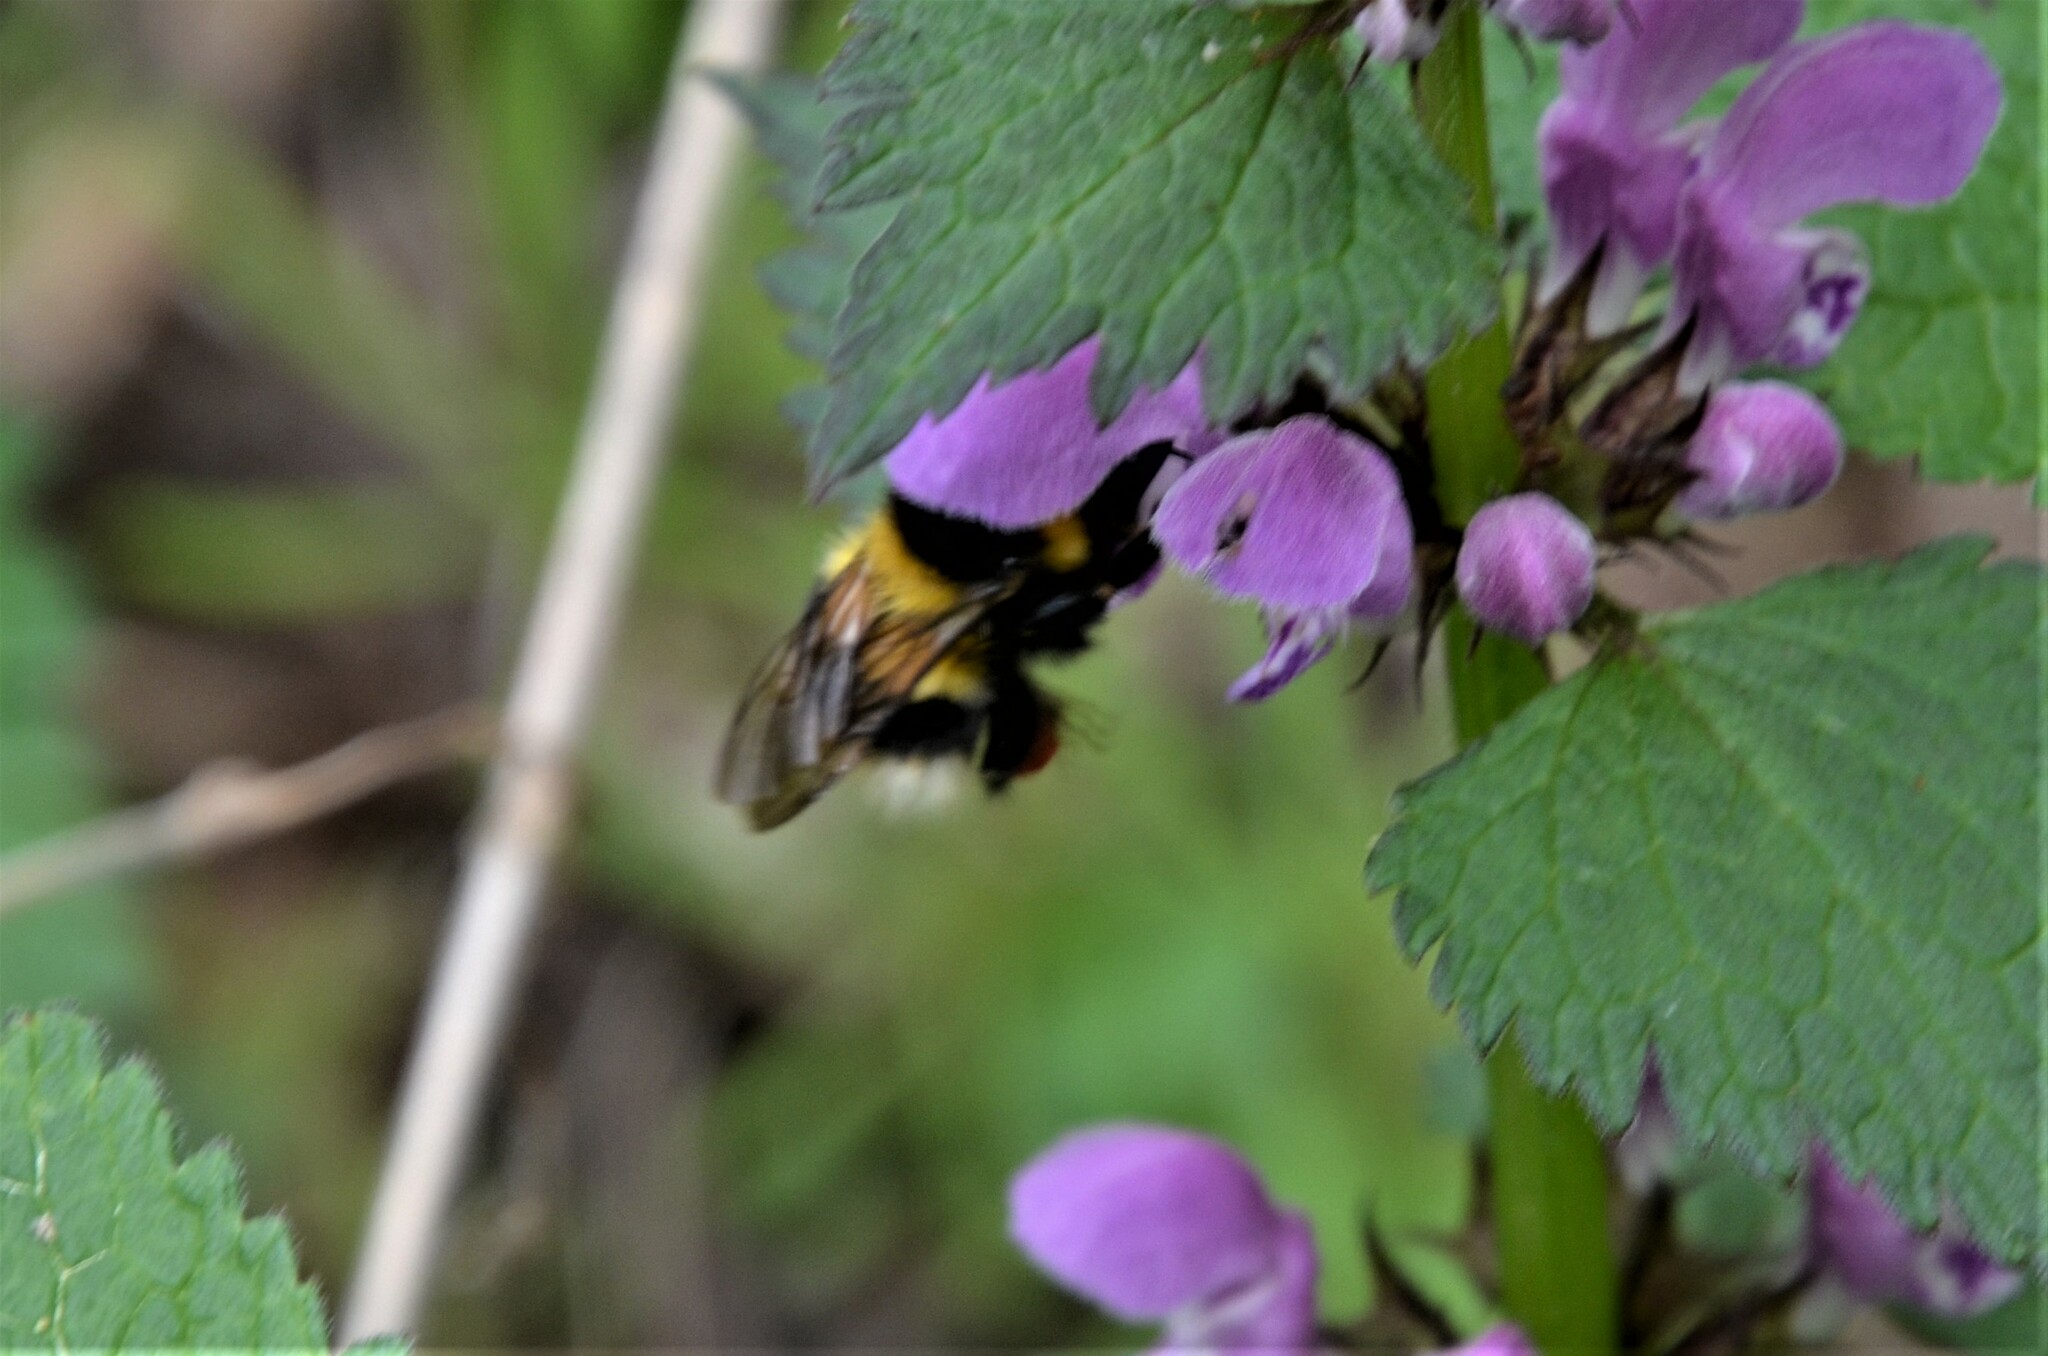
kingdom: Animalia
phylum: Arthropoda
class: Insecta
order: Hymenoptera
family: Apidae
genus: Bombus
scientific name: Bombus hortorum
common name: Garden bumblebee
